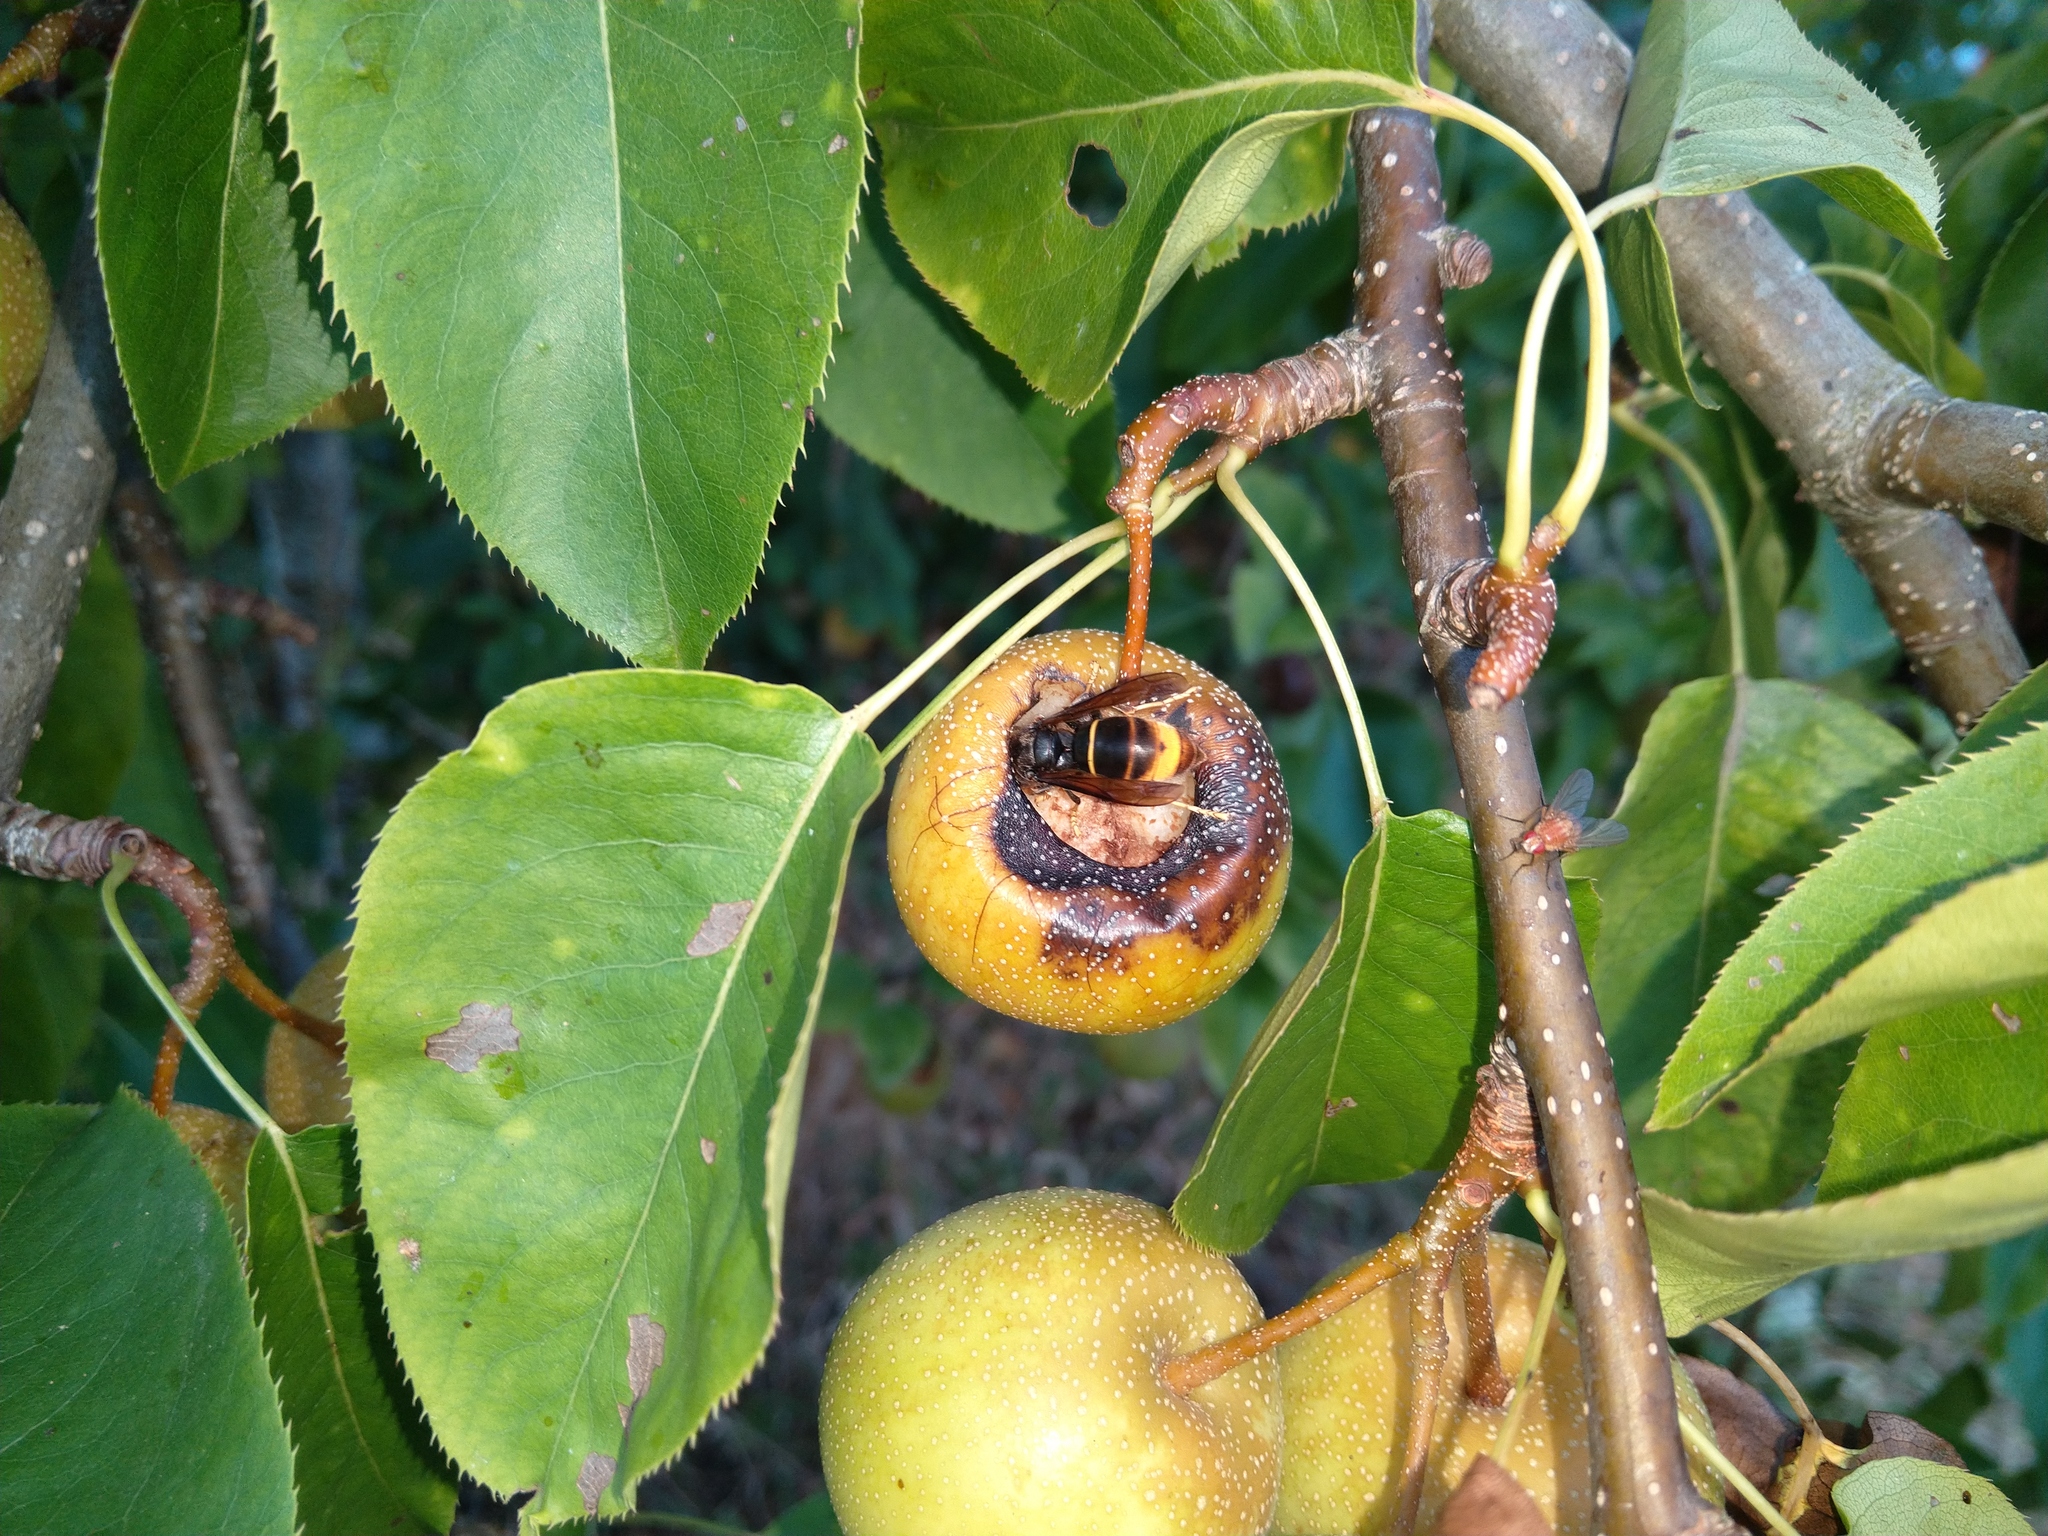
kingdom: Animalia
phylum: Arthropoda
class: Insecta
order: Hymenoptera
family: Vespidae
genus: Vespa
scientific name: Vespa velutina
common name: Asian hornet
